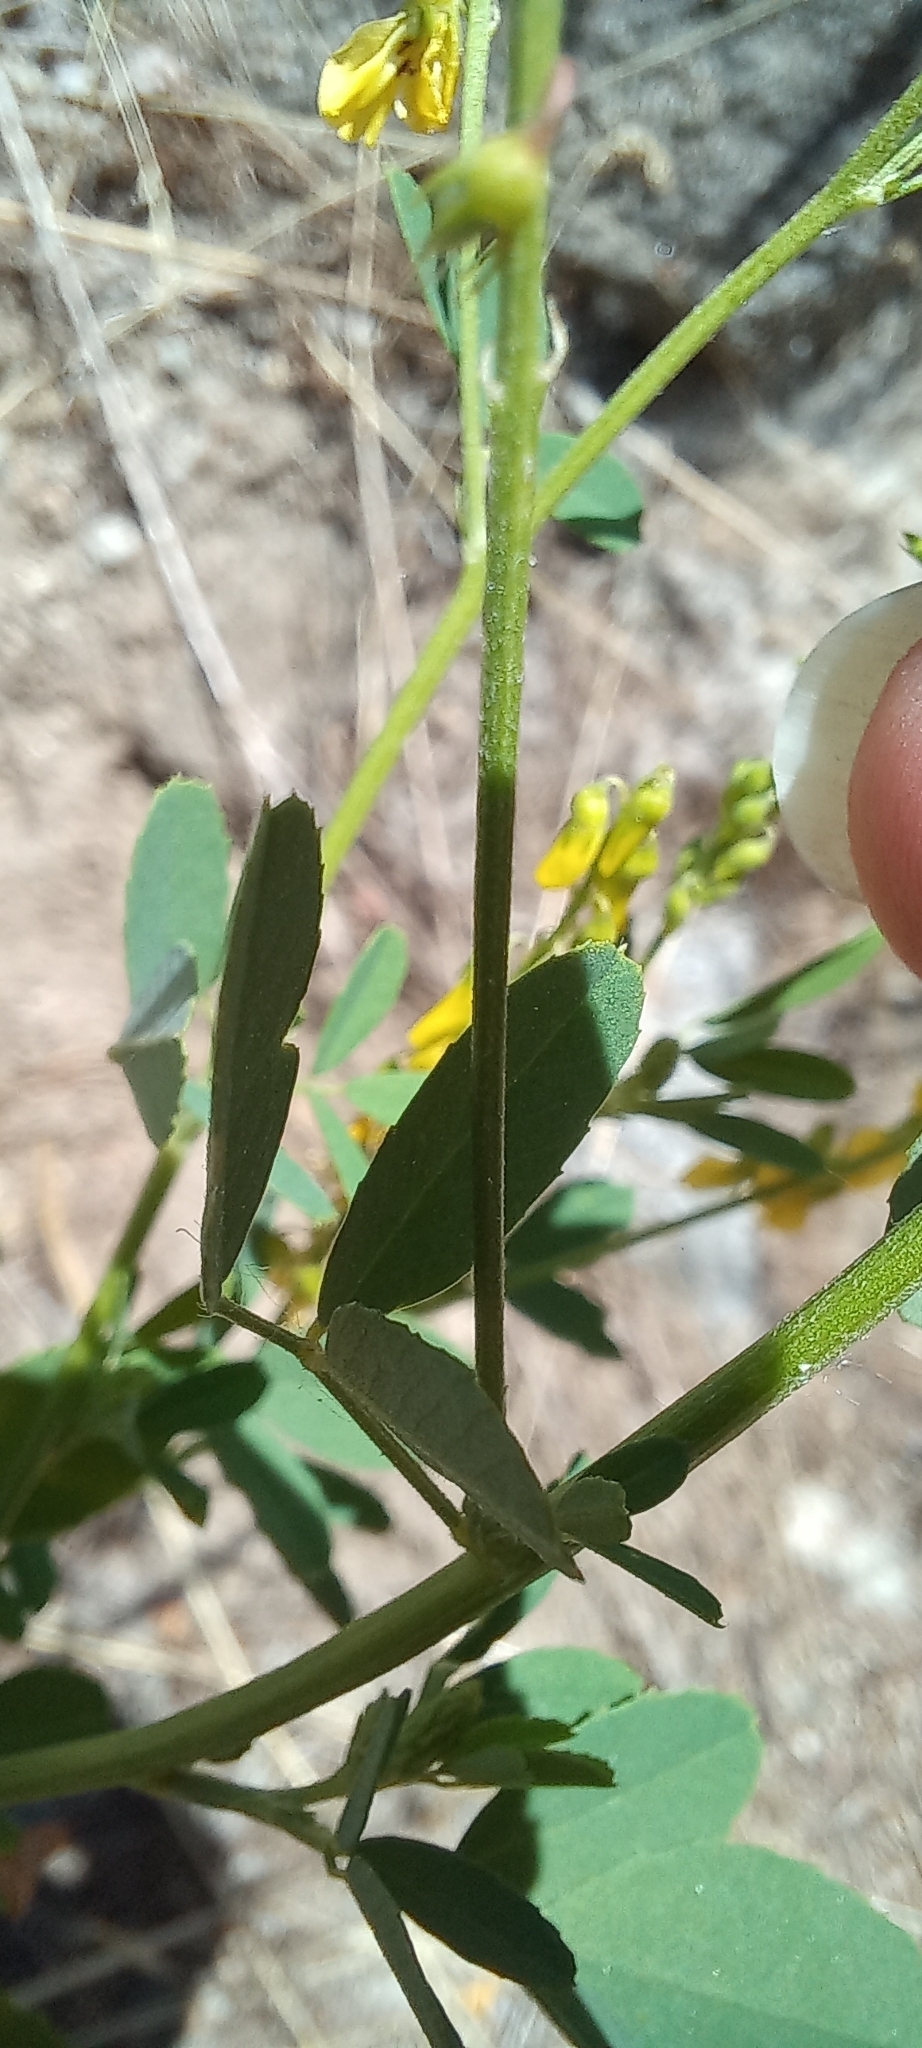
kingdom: Plantae
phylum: Tracheophyta
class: Magnoliopsida
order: Fabales
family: Fabaceae
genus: Melilotus
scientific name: Melilotus officinalis
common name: Sweetclover
